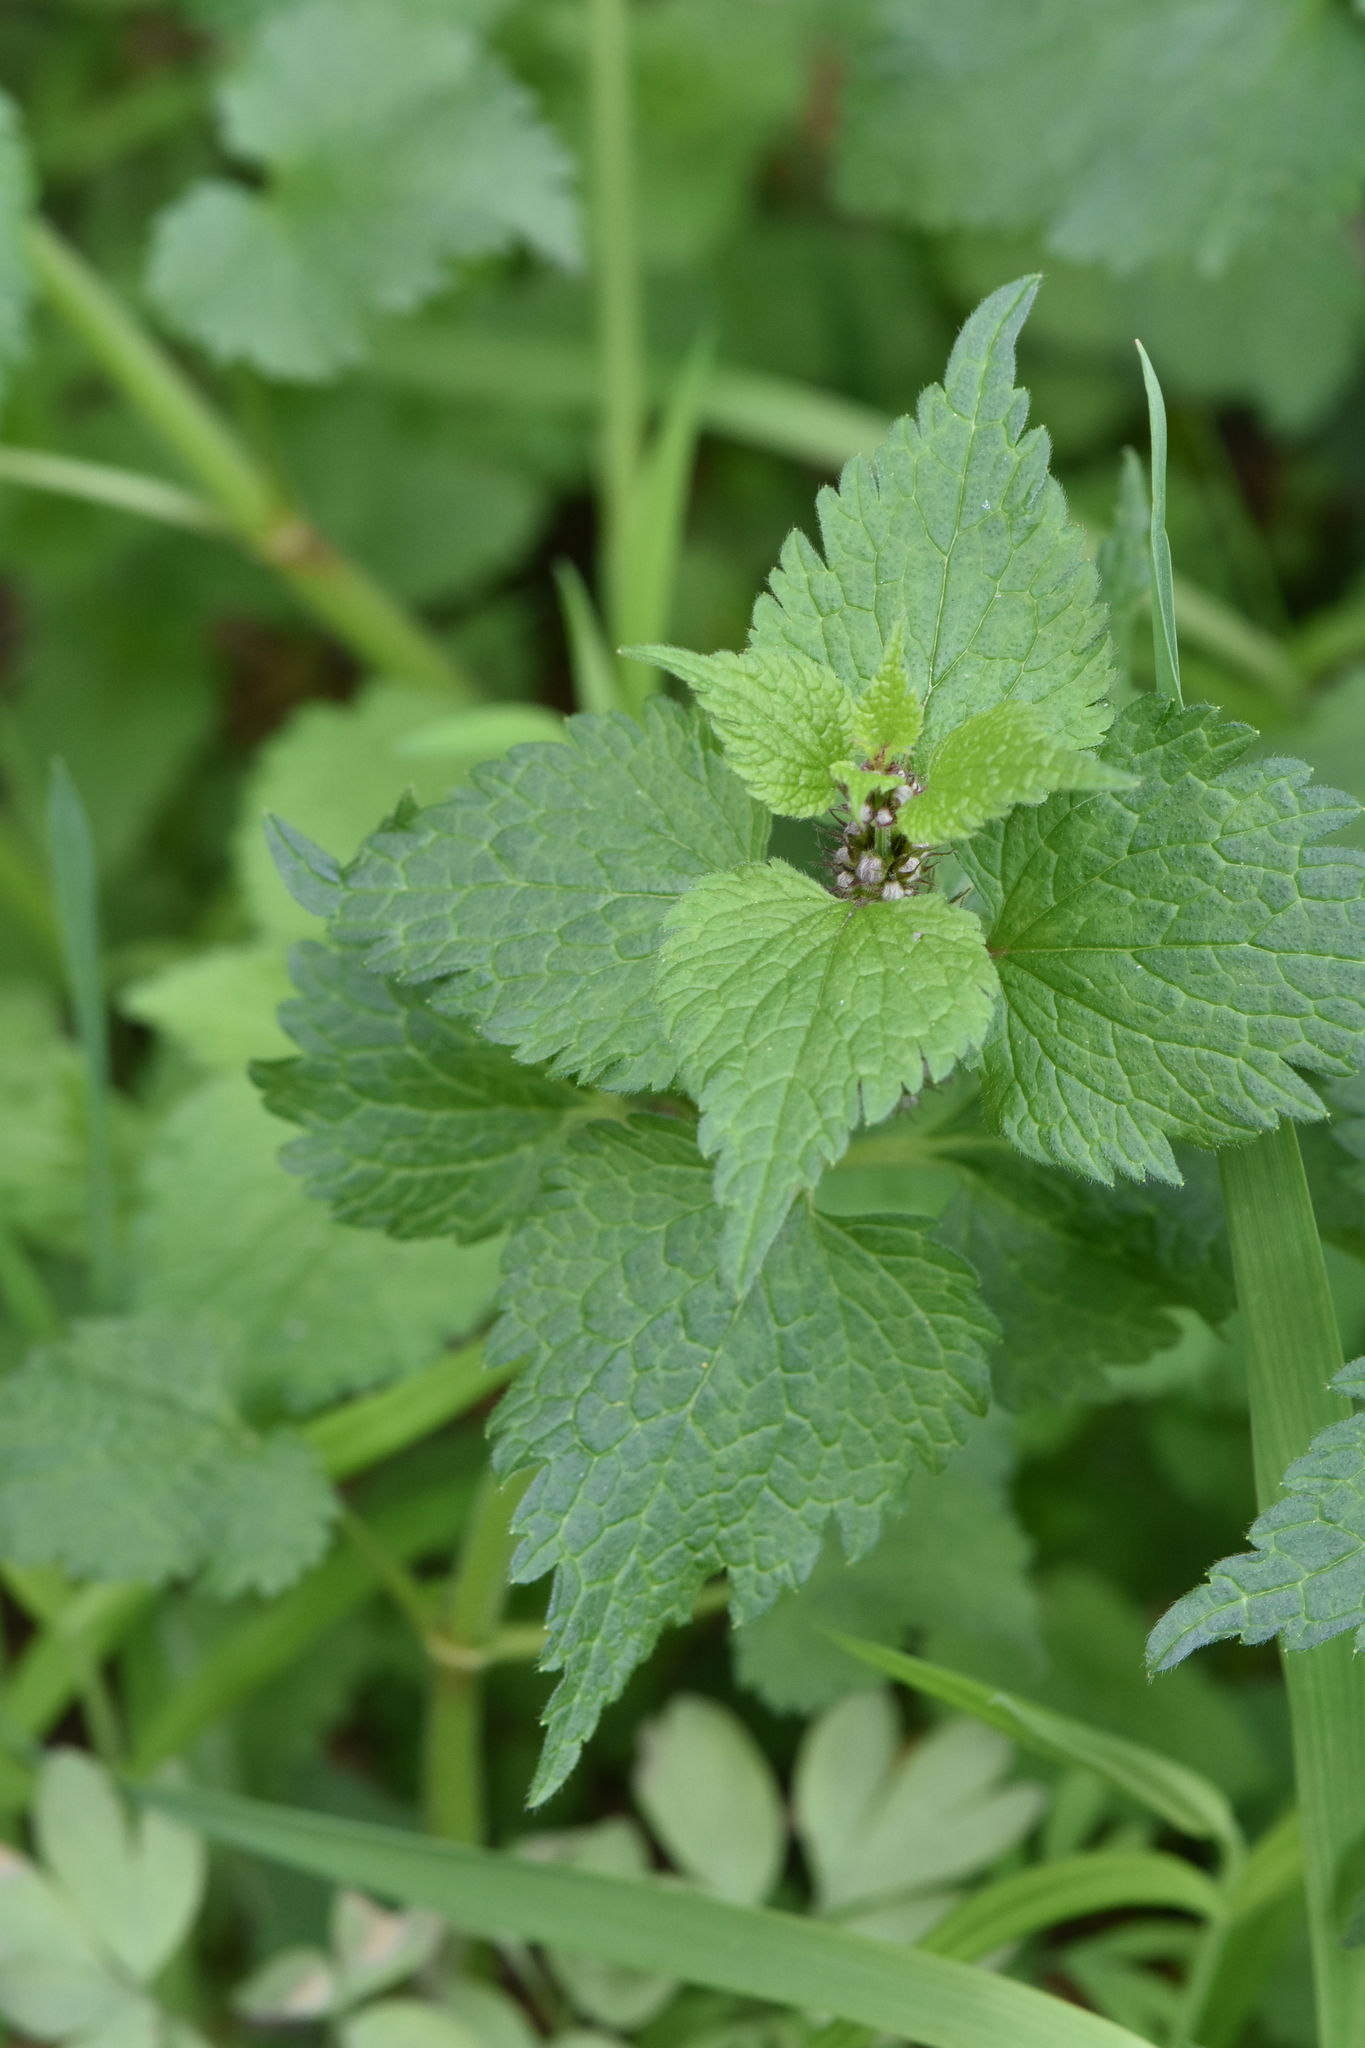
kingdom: Plantae
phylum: Tracheophyta
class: Magnoliopsida
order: Lamiales
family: Lamiaceae
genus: Lamium
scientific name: Lamium maculatum
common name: Spotted dead-nettle
